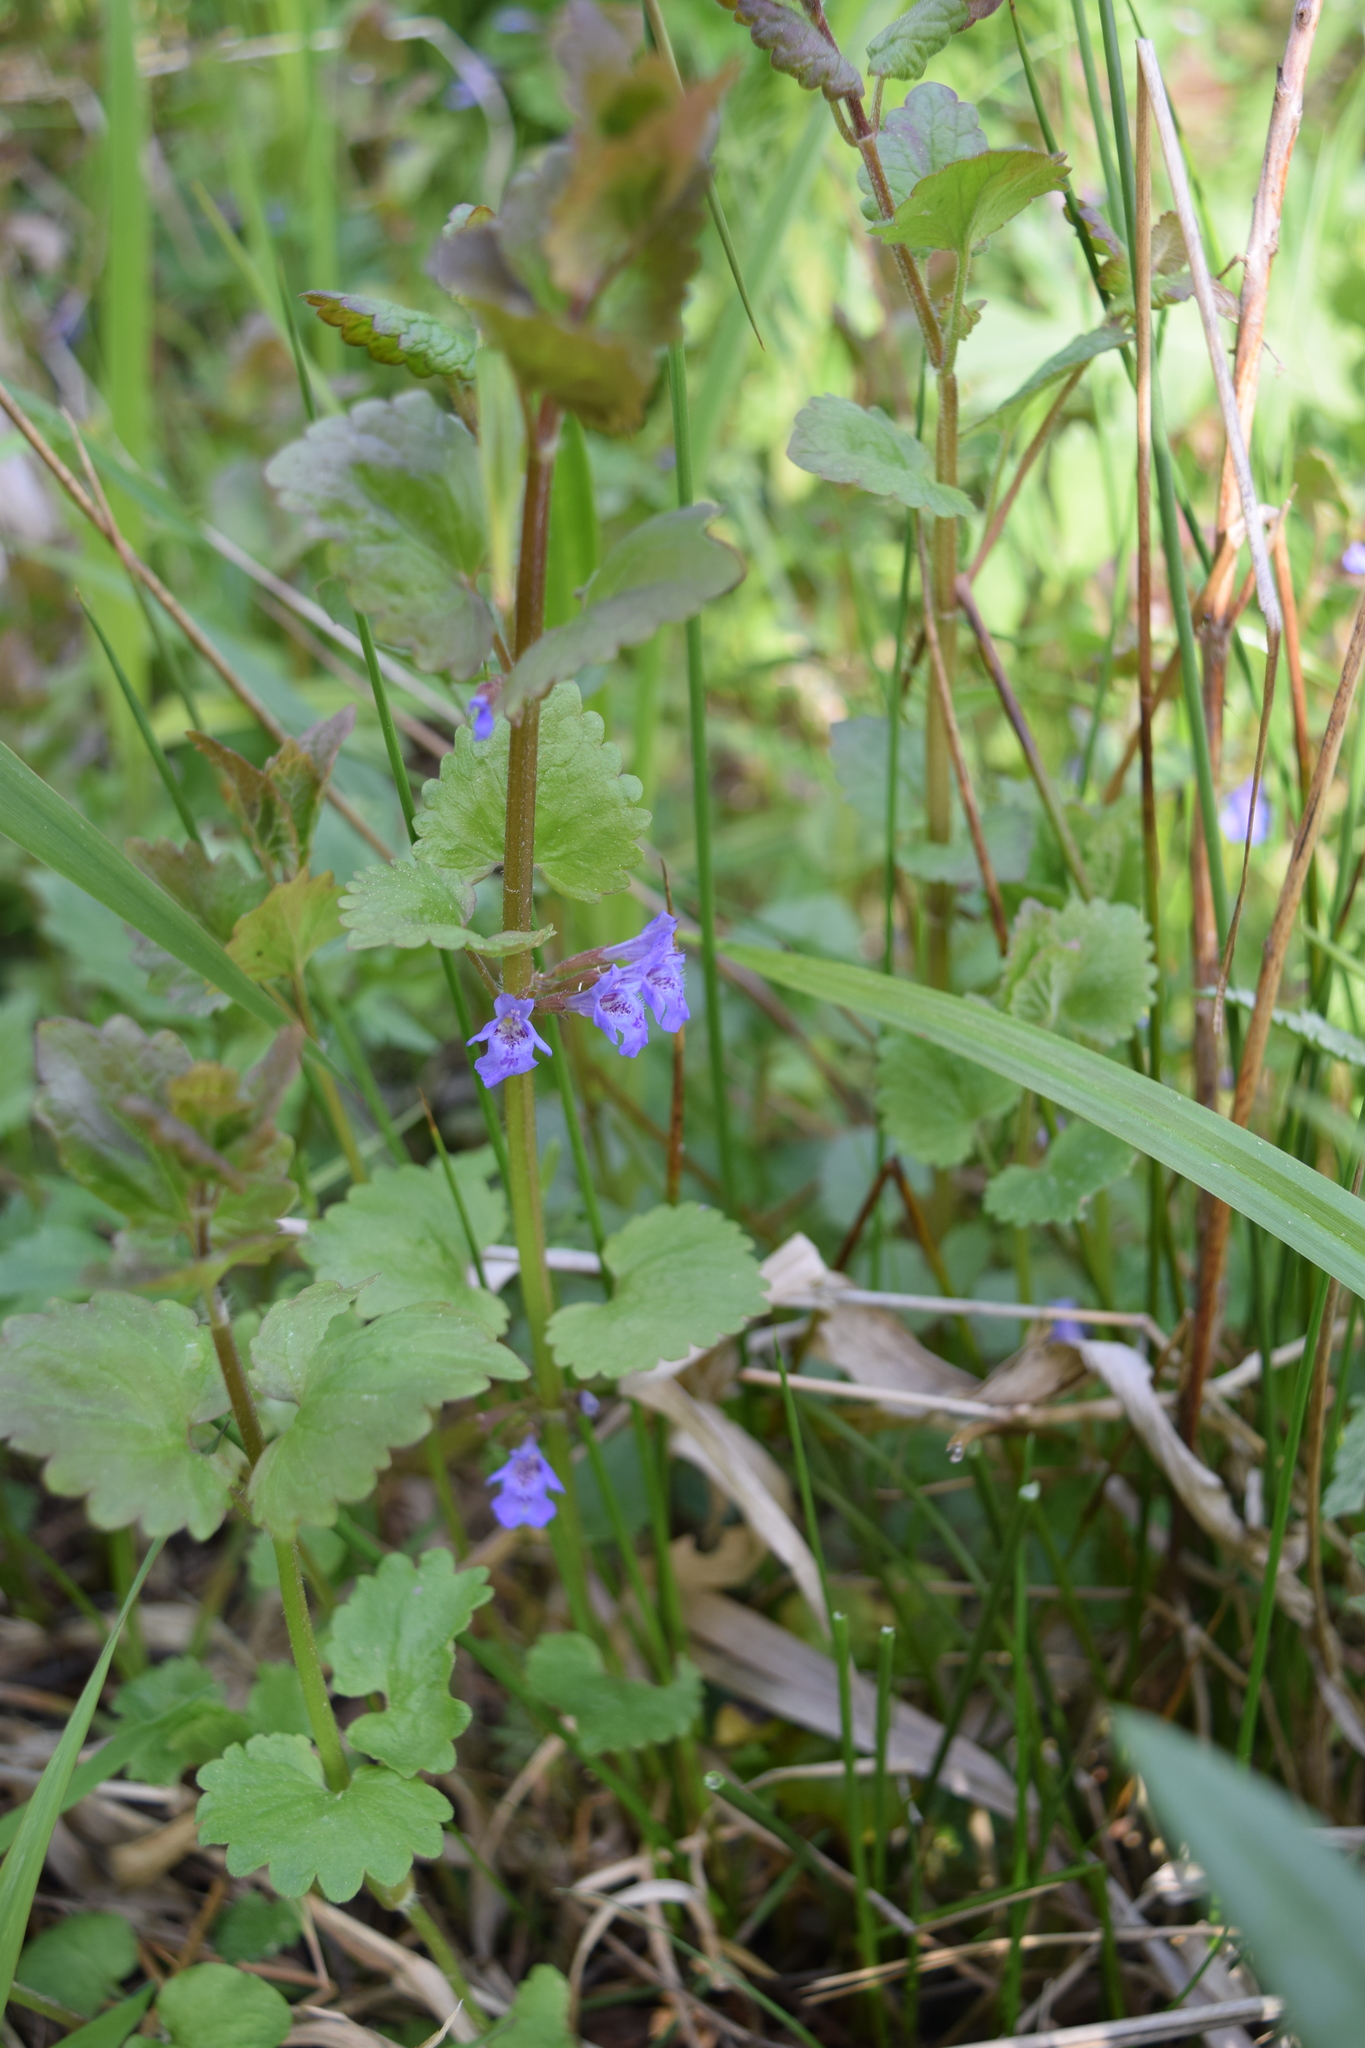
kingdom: Plantae
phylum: Tracheophyta
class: Magnoliopsida
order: Lamiales
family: Lamiaceae
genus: Glechoma
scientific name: Glechoma hederacea
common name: Ground ivy
